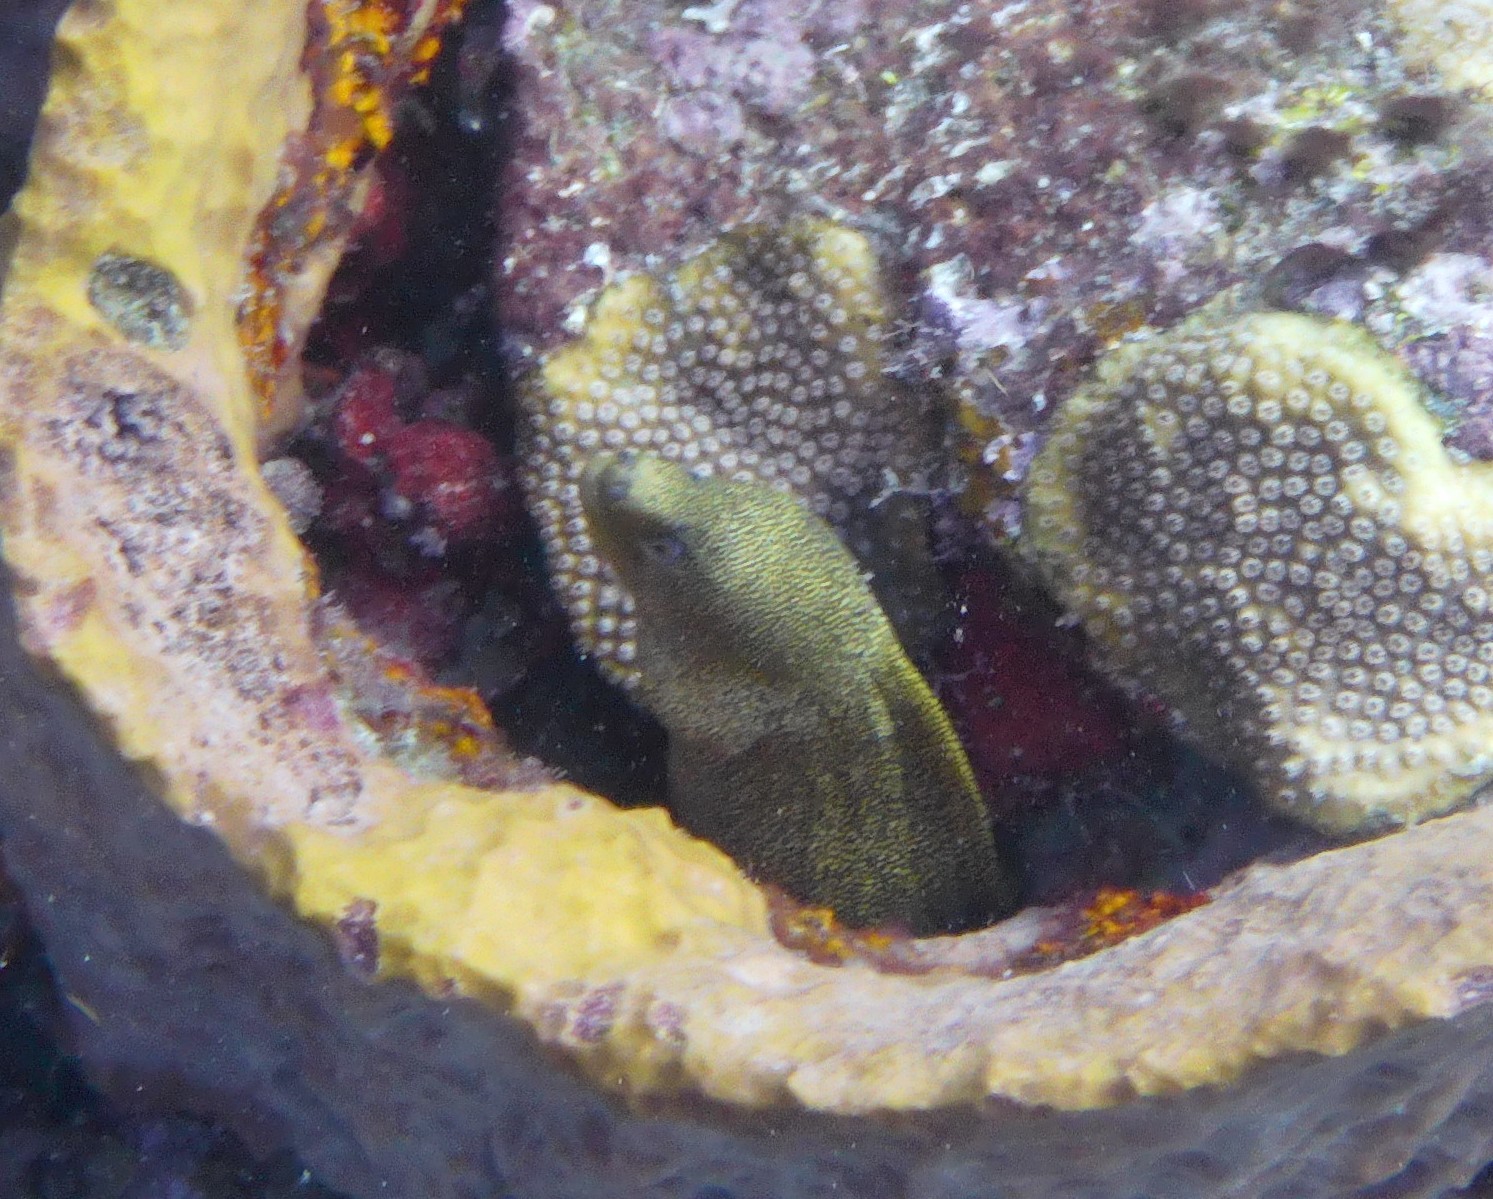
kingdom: Animalia
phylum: Chordata
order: Anguilliformes
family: Muraenidae
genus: Gymnothorax
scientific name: Gymnothorax miliaris
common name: Goldentail moray
